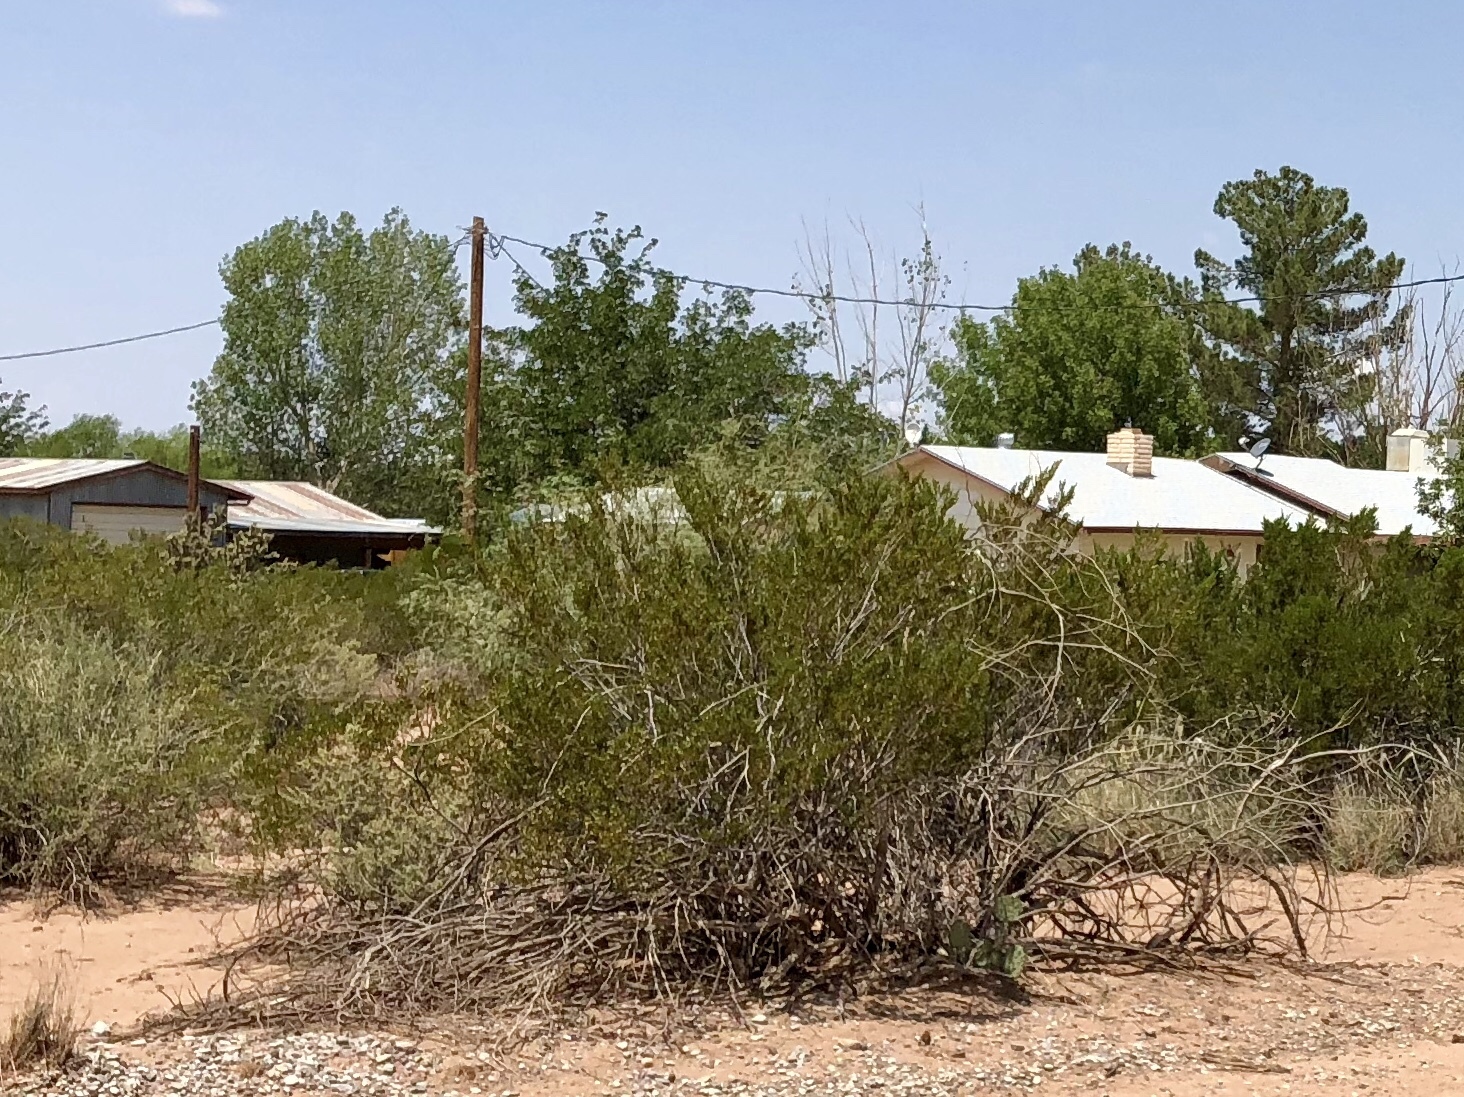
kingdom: Plantae
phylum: Tracheophyta
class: Magnoliopsida
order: Zygophyllales
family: Zygophyllaceae
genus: Larrea
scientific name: Larrea tridentata
